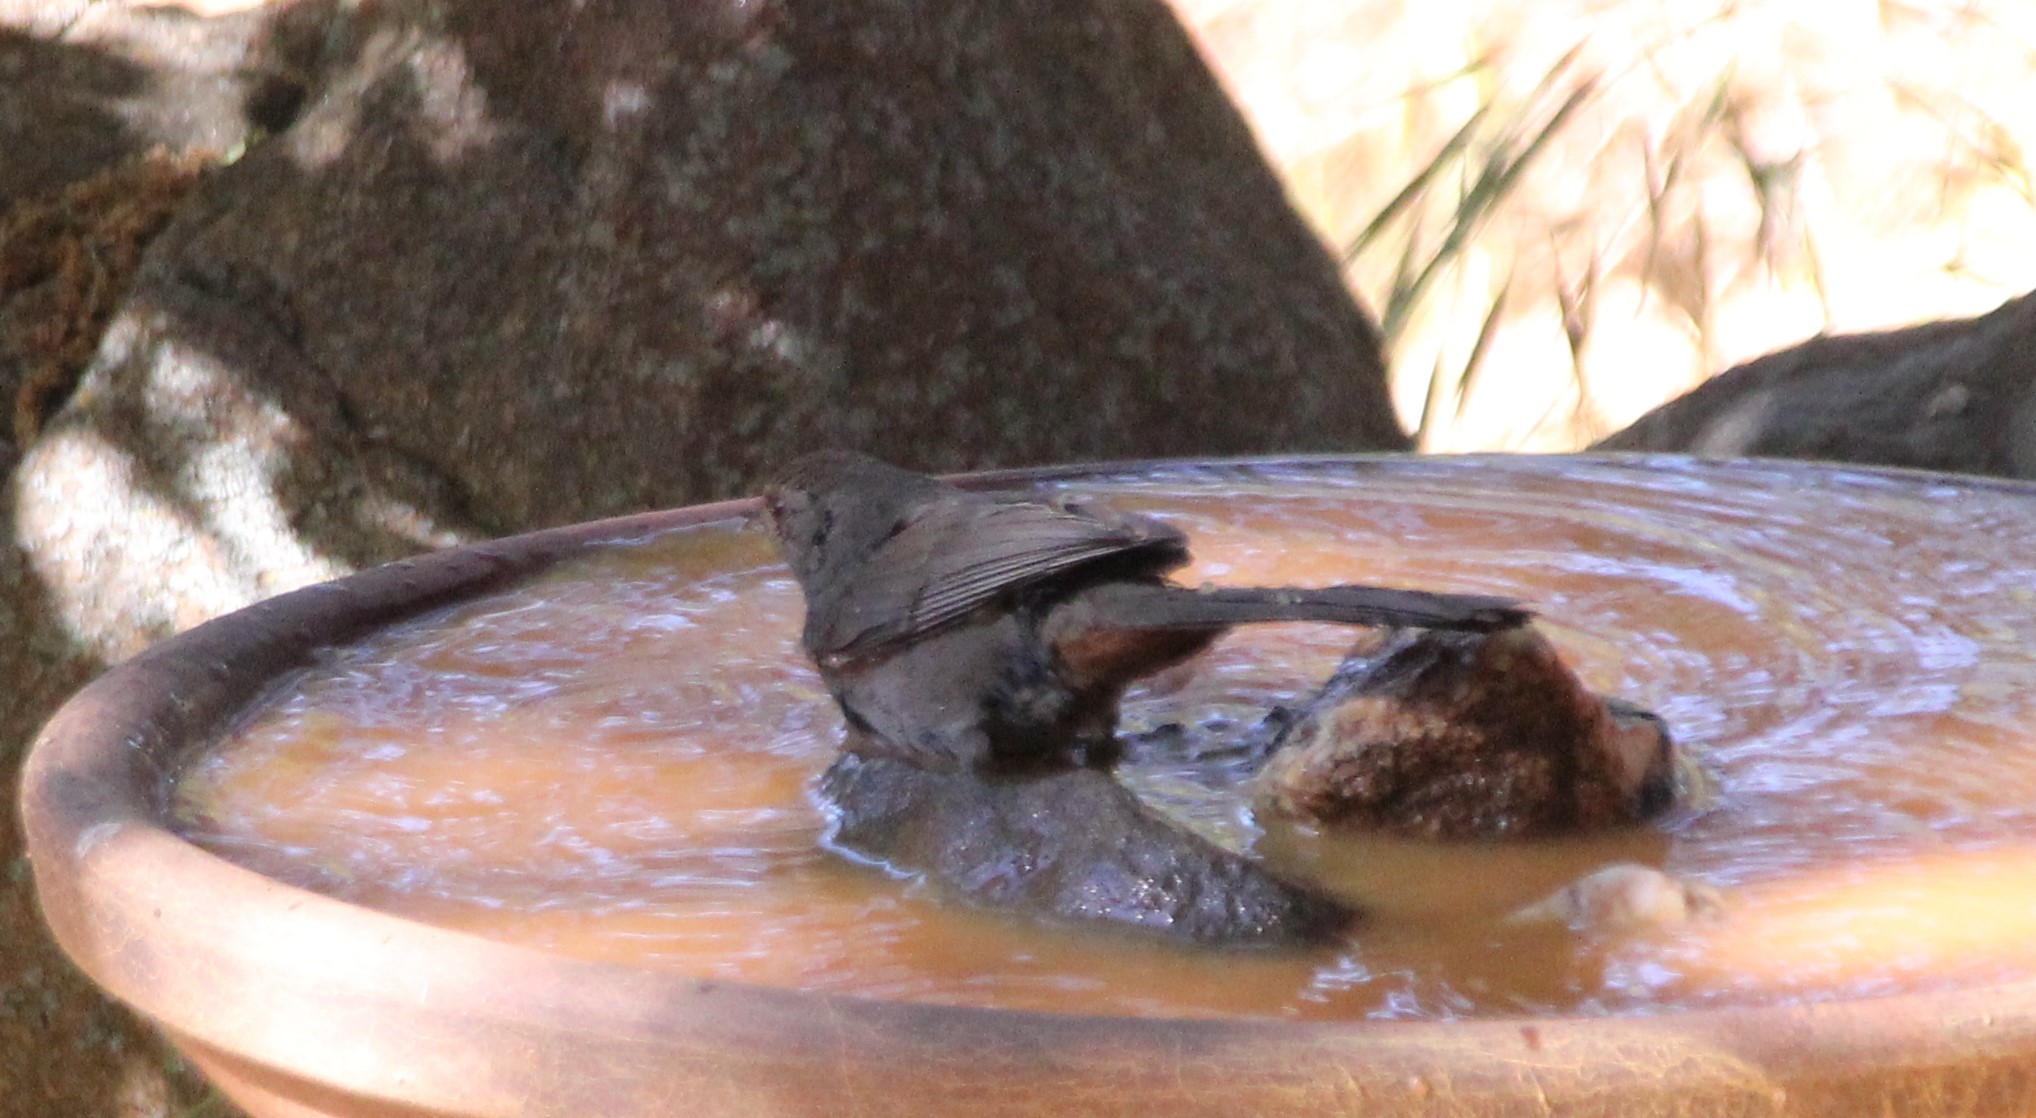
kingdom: Animalia
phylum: Chordata
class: Aves
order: Passeriformes
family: Passerellidae
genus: Melozone
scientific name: Melozone crissalis
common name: California towhee
